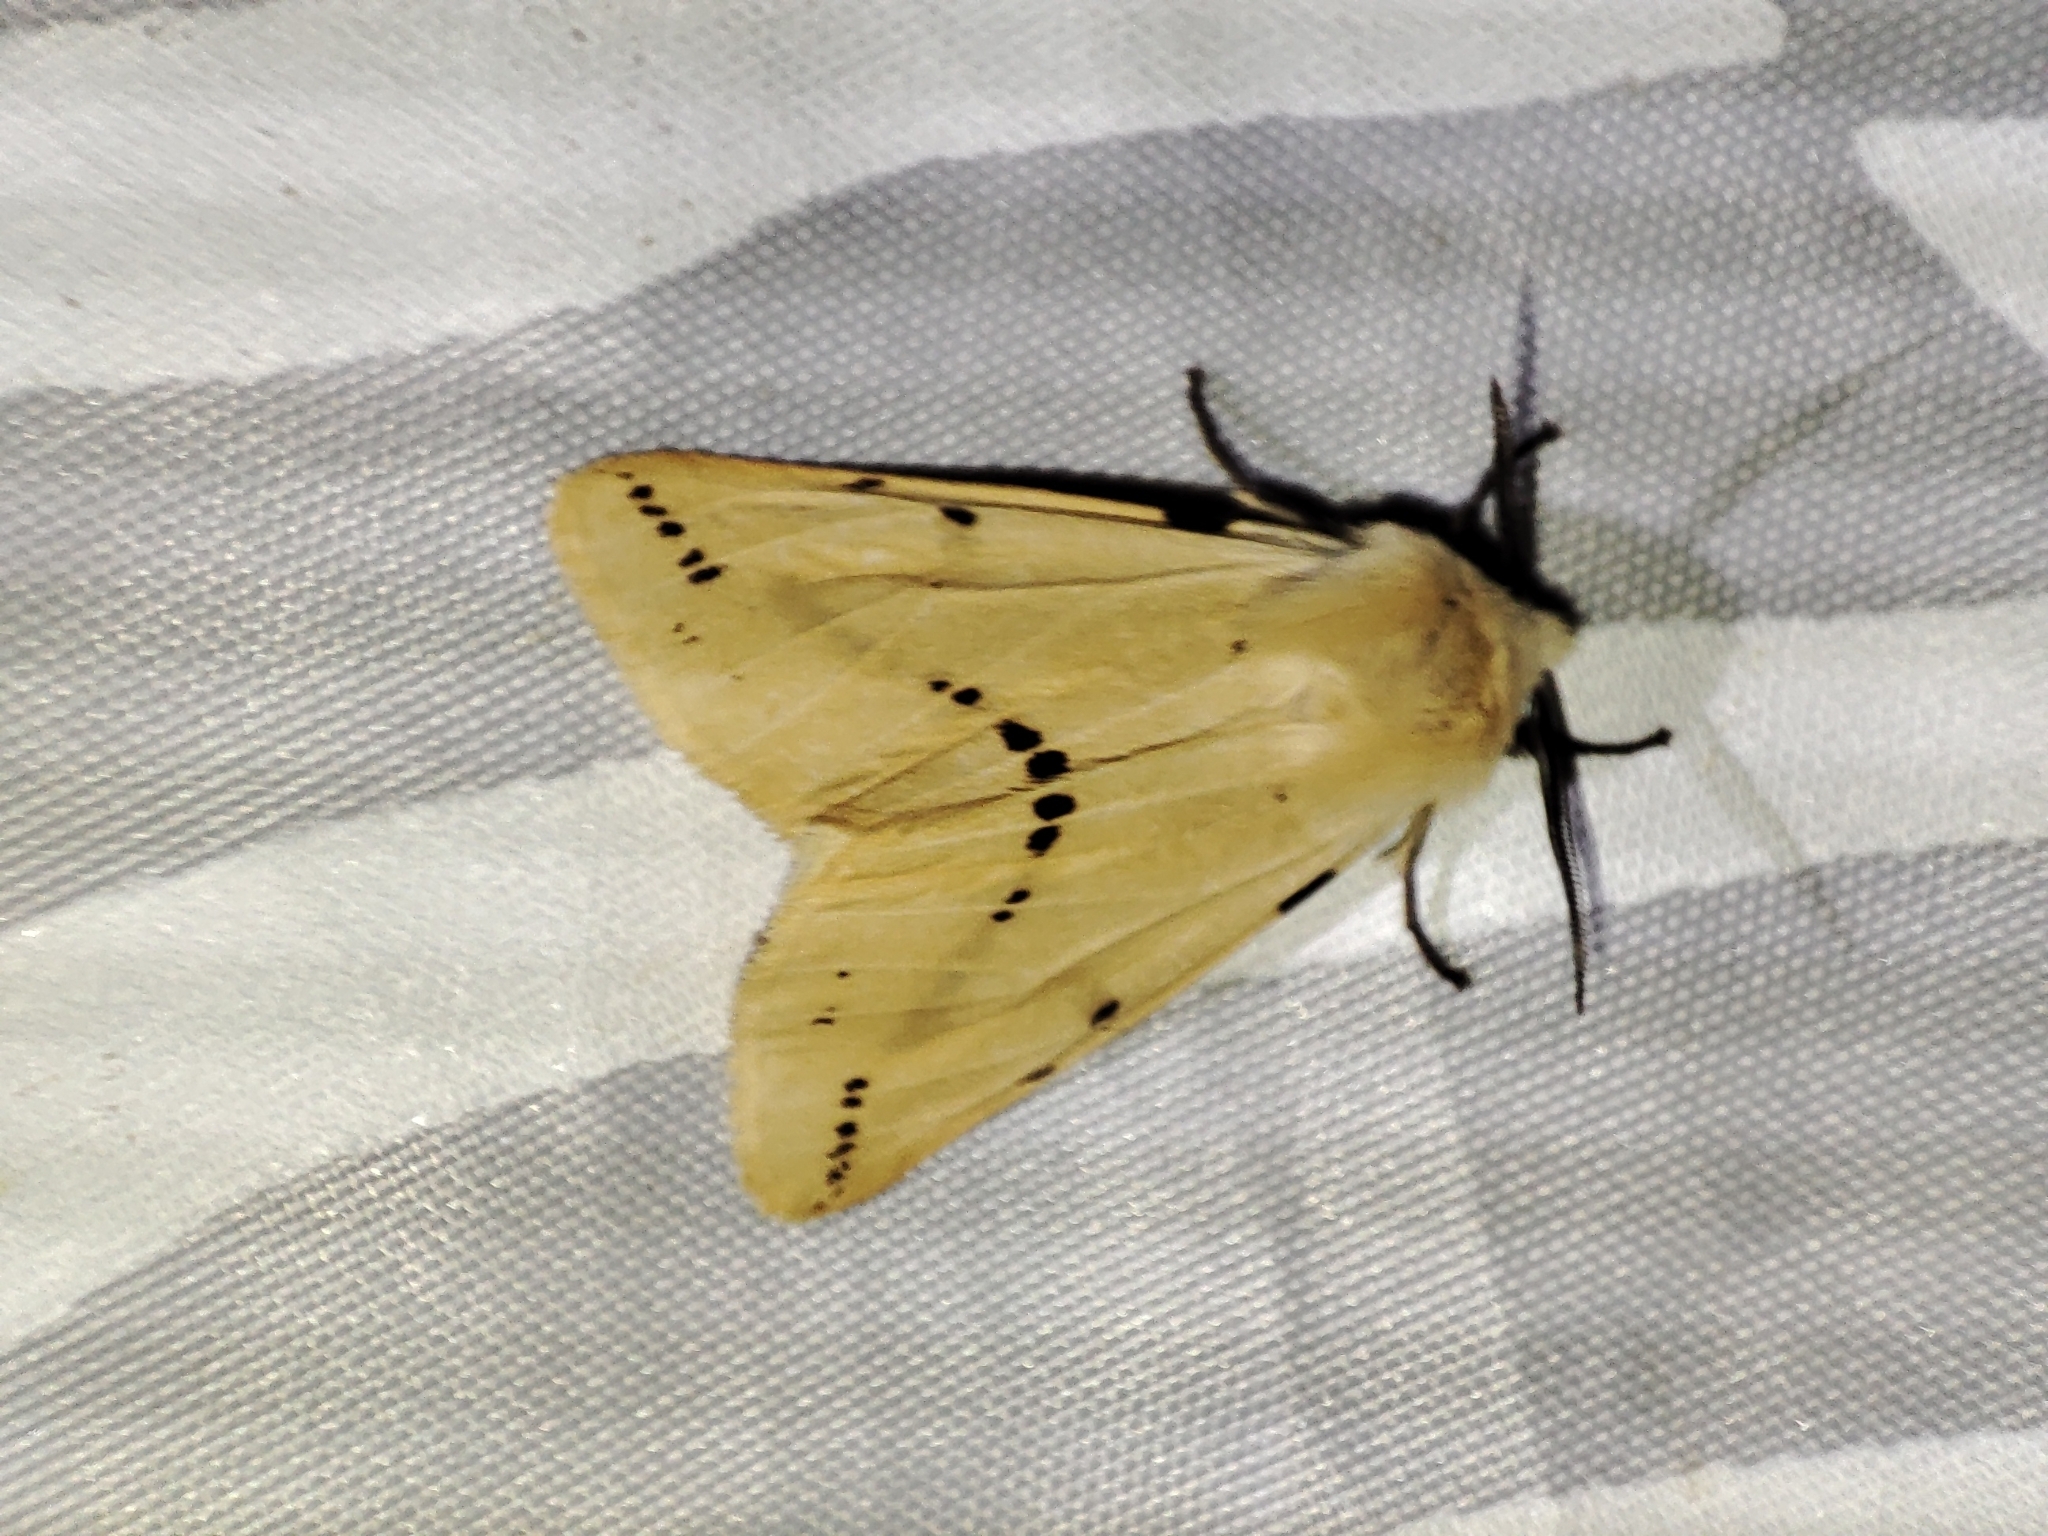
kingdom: Animalia
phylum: Arthropoda
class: Insecta
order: Lepidoptera
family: Erebidae
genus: Spilarctia
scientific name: Spilarctia lutea
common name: Buff ermine
